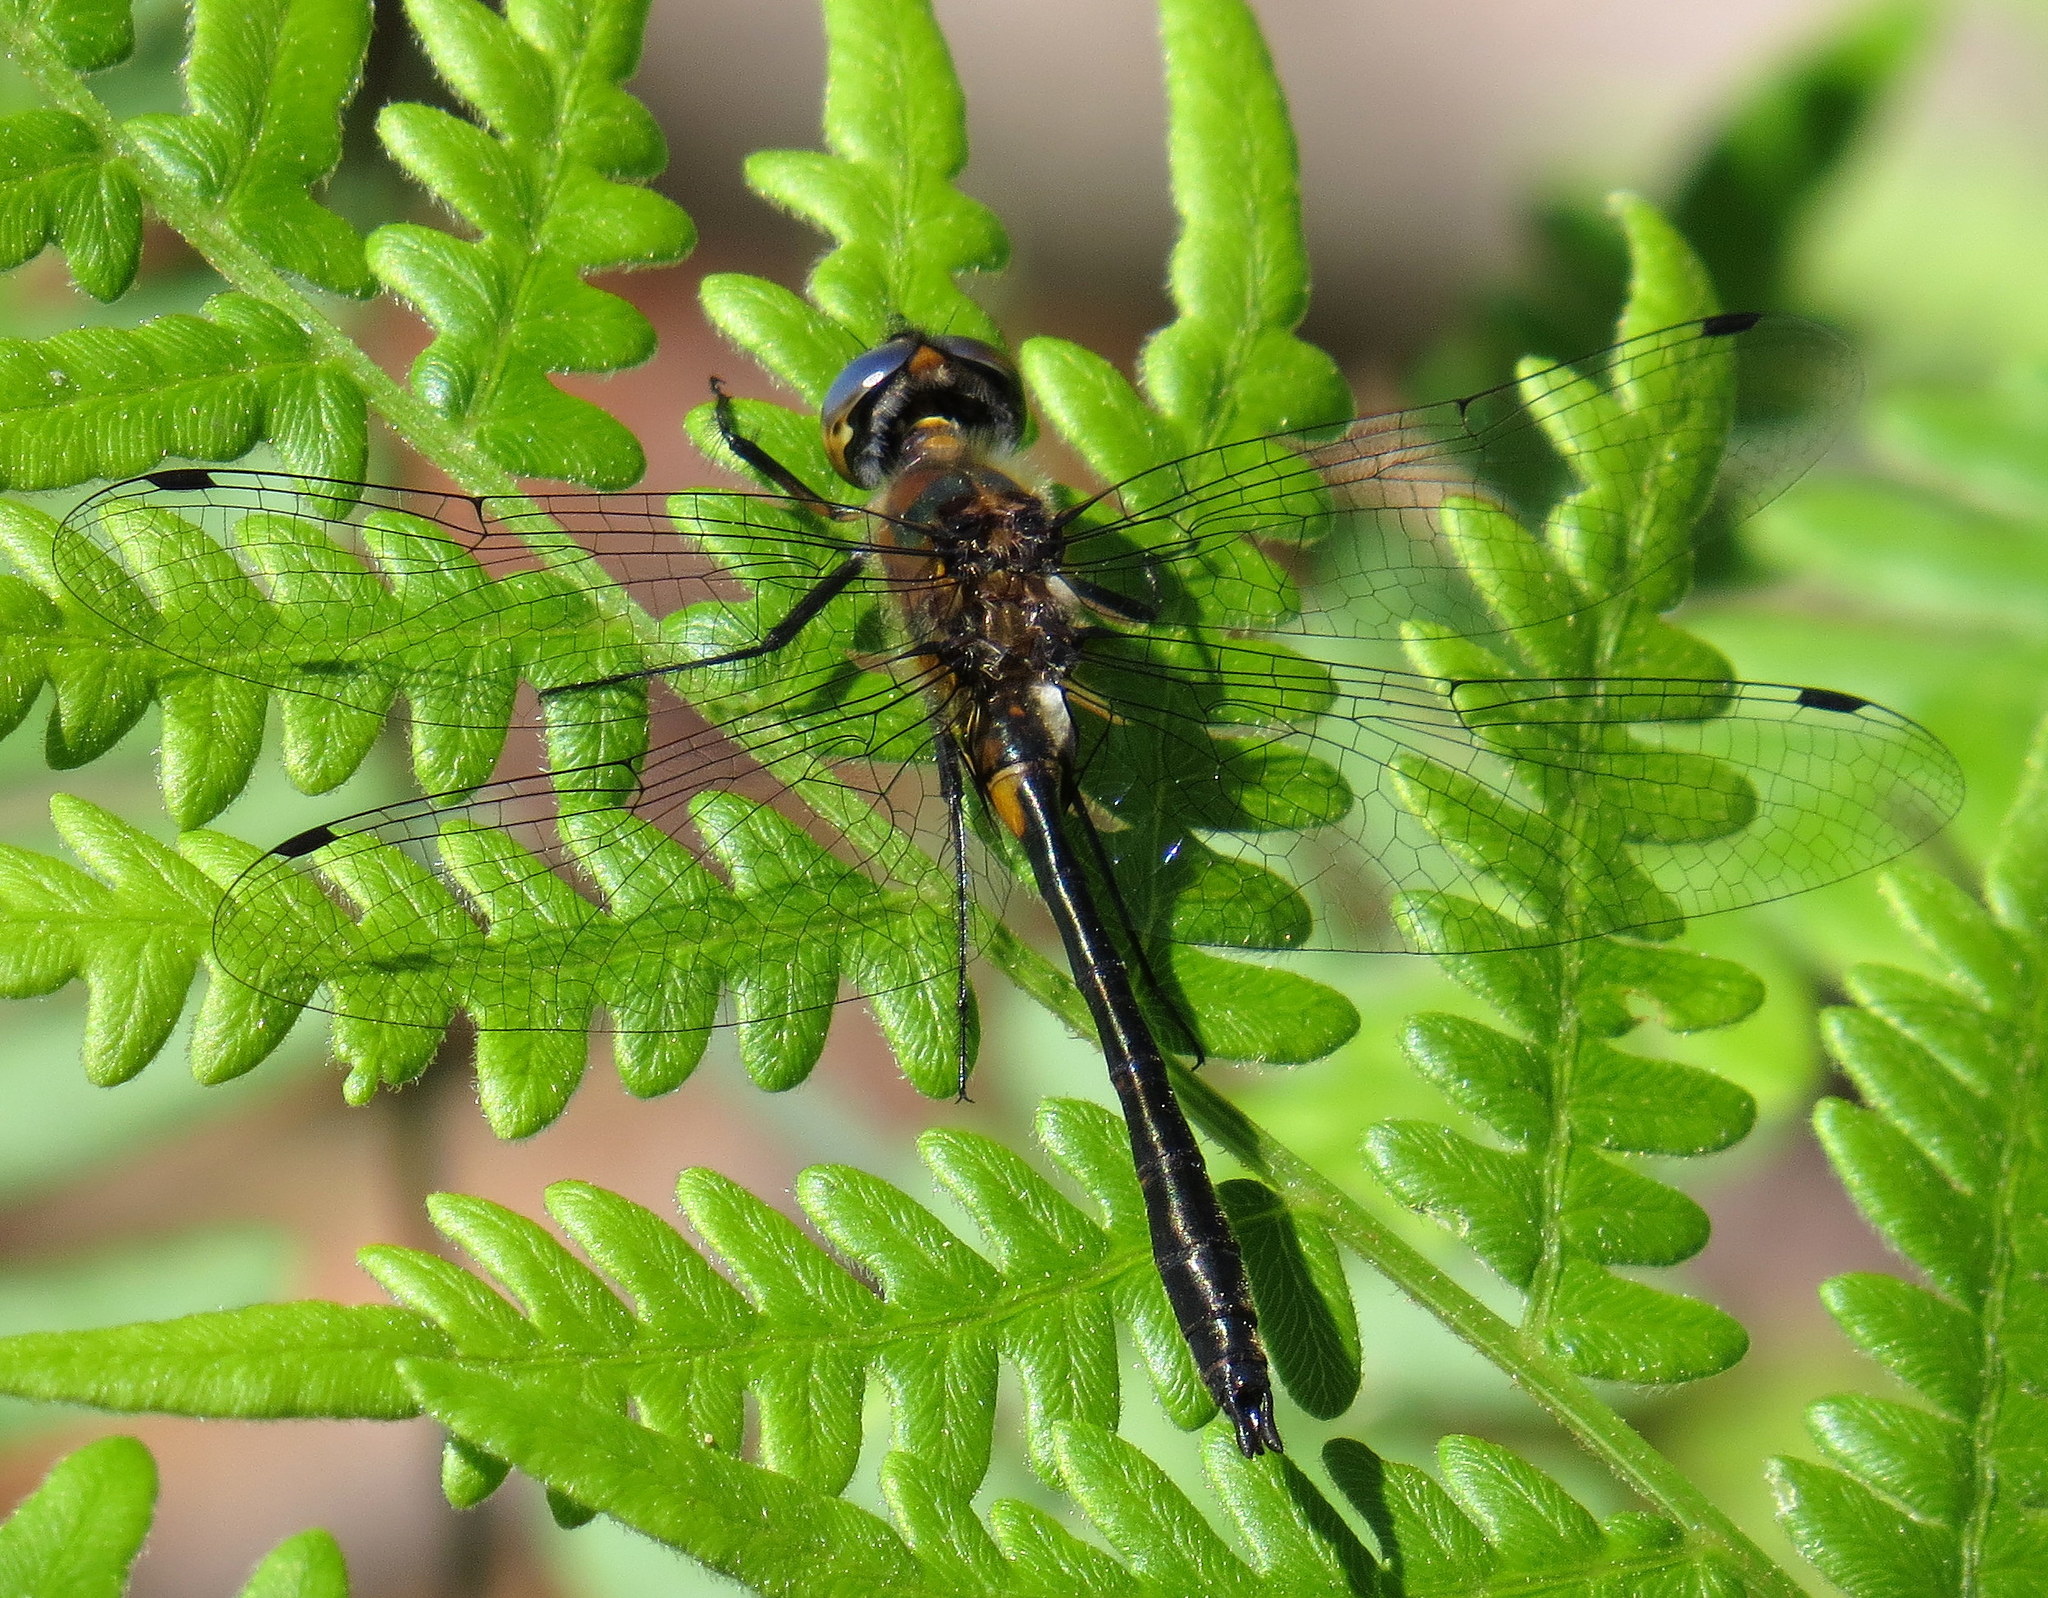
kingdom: Animalia
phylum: Arthropoda
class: Insecta
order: Odonata
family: Corduliidae
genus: Dorocordulia
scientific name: Dorocordulia lepida
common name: Petite emerald
